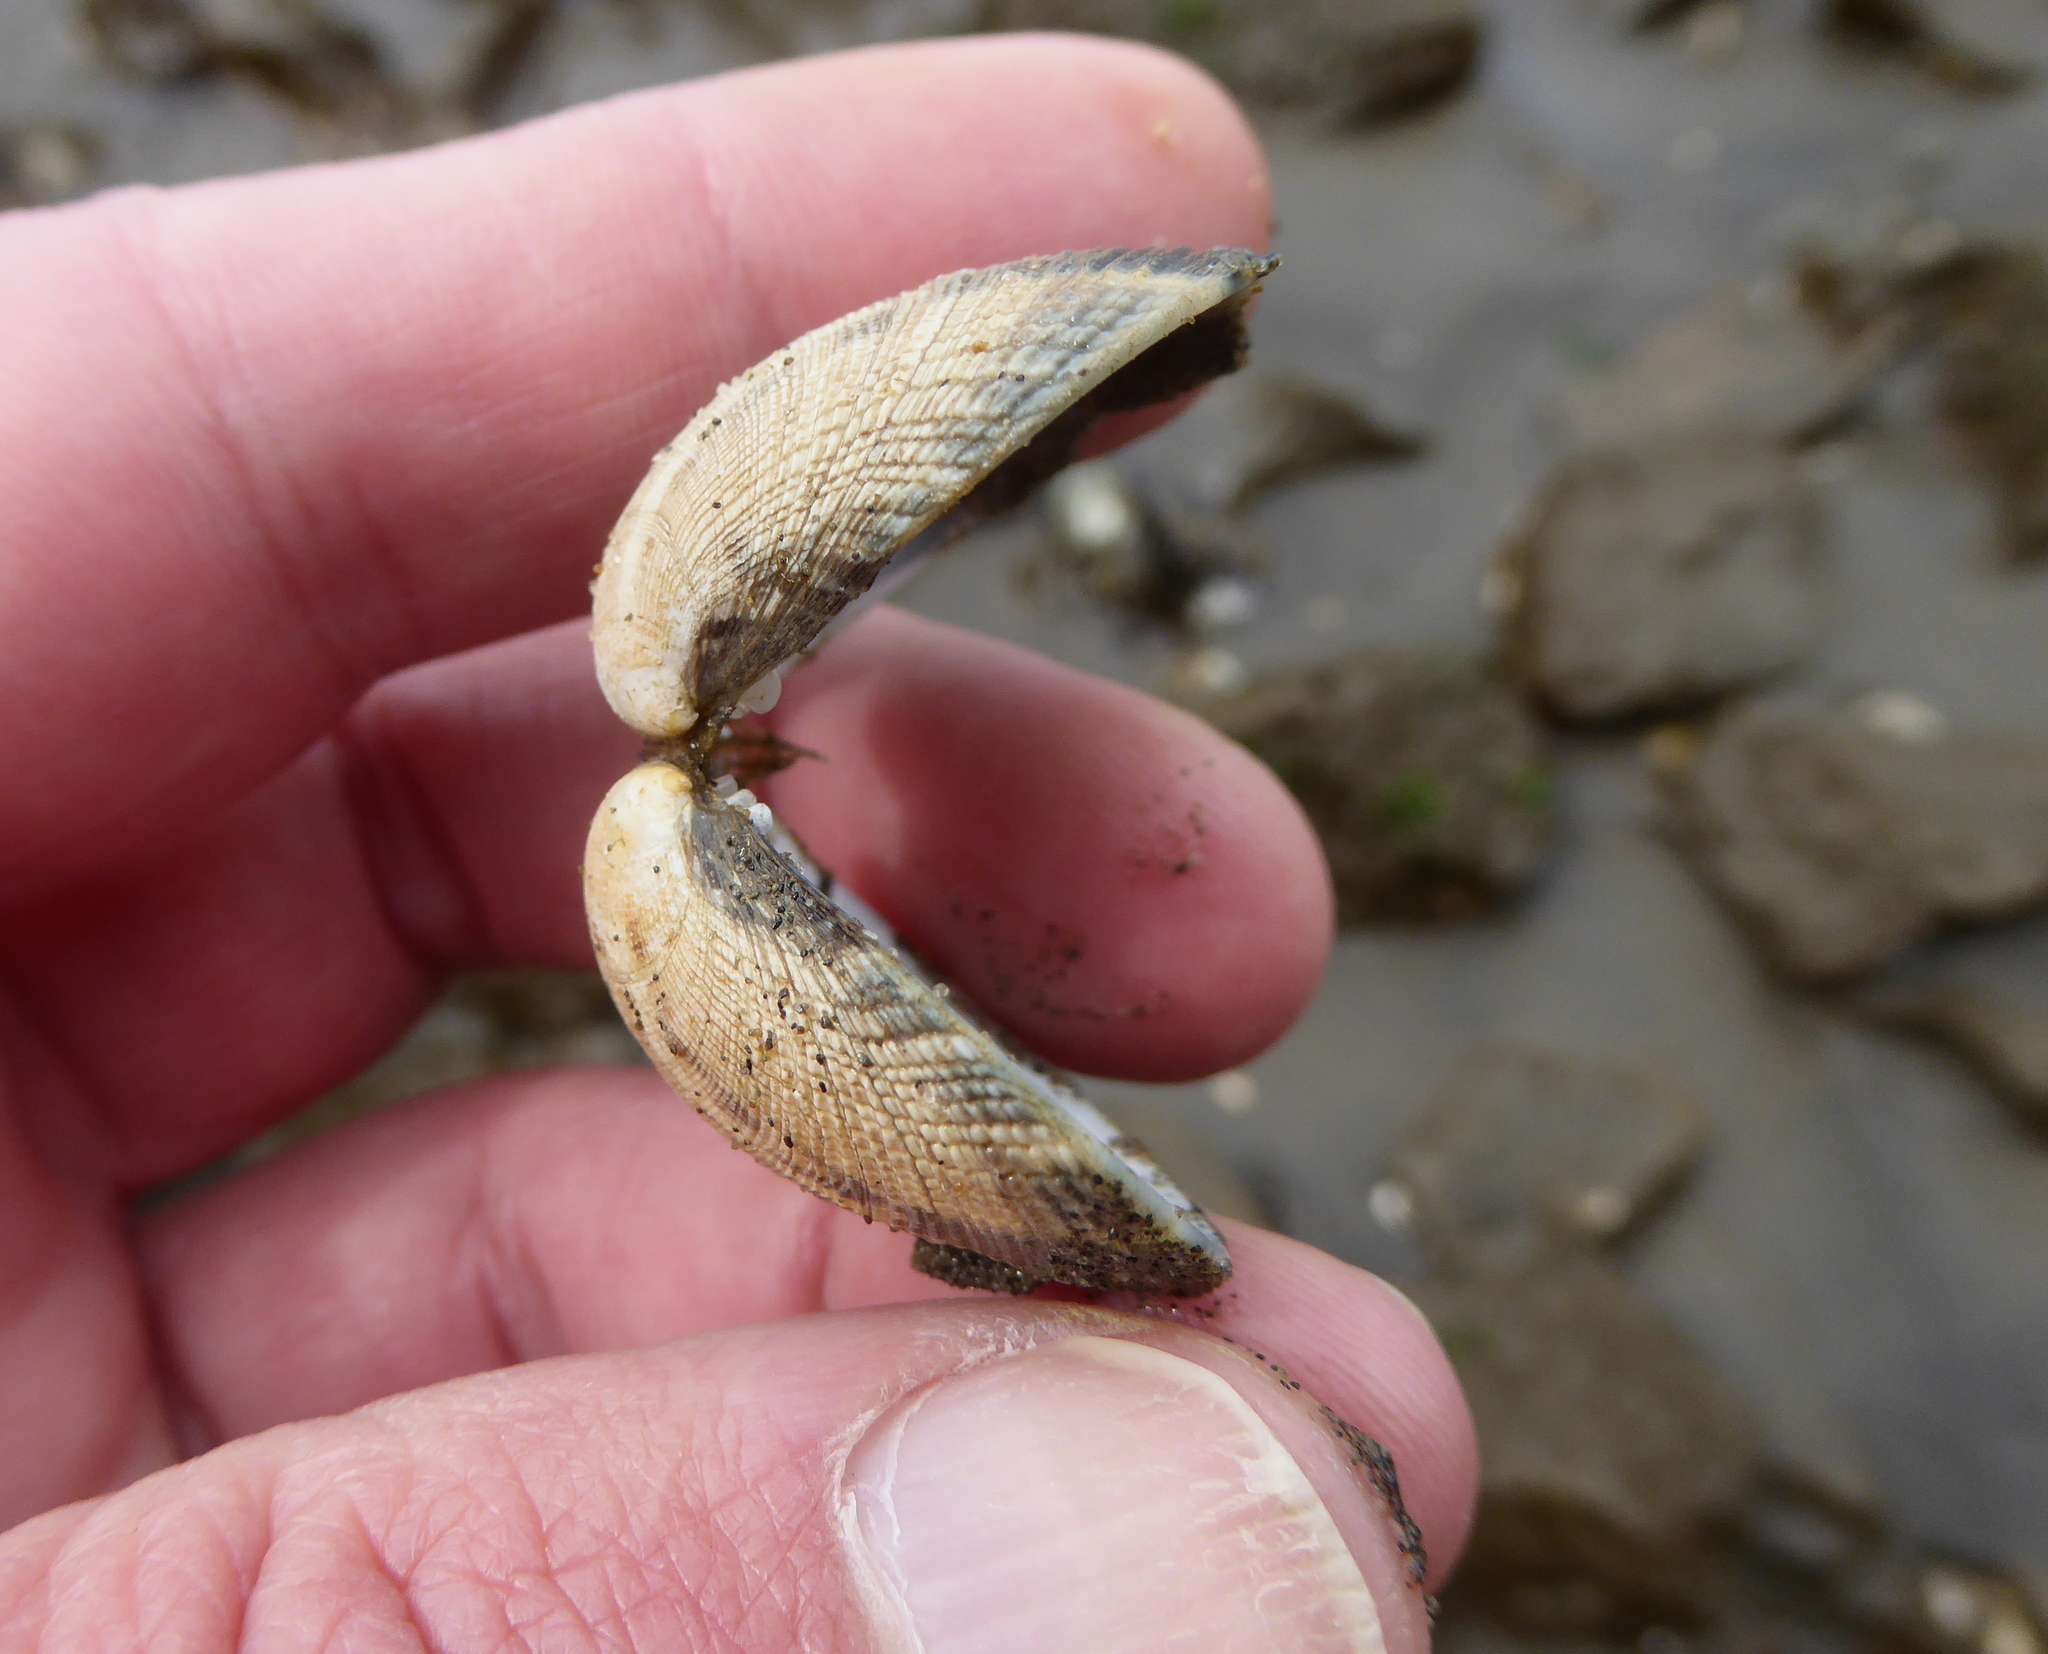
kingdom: Animalia
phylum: Mollusca
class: Bivalvia
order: Venerida
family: Veneridae
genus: Ruditapes
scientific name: Ruditapes philippinarum
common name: Manila clam
